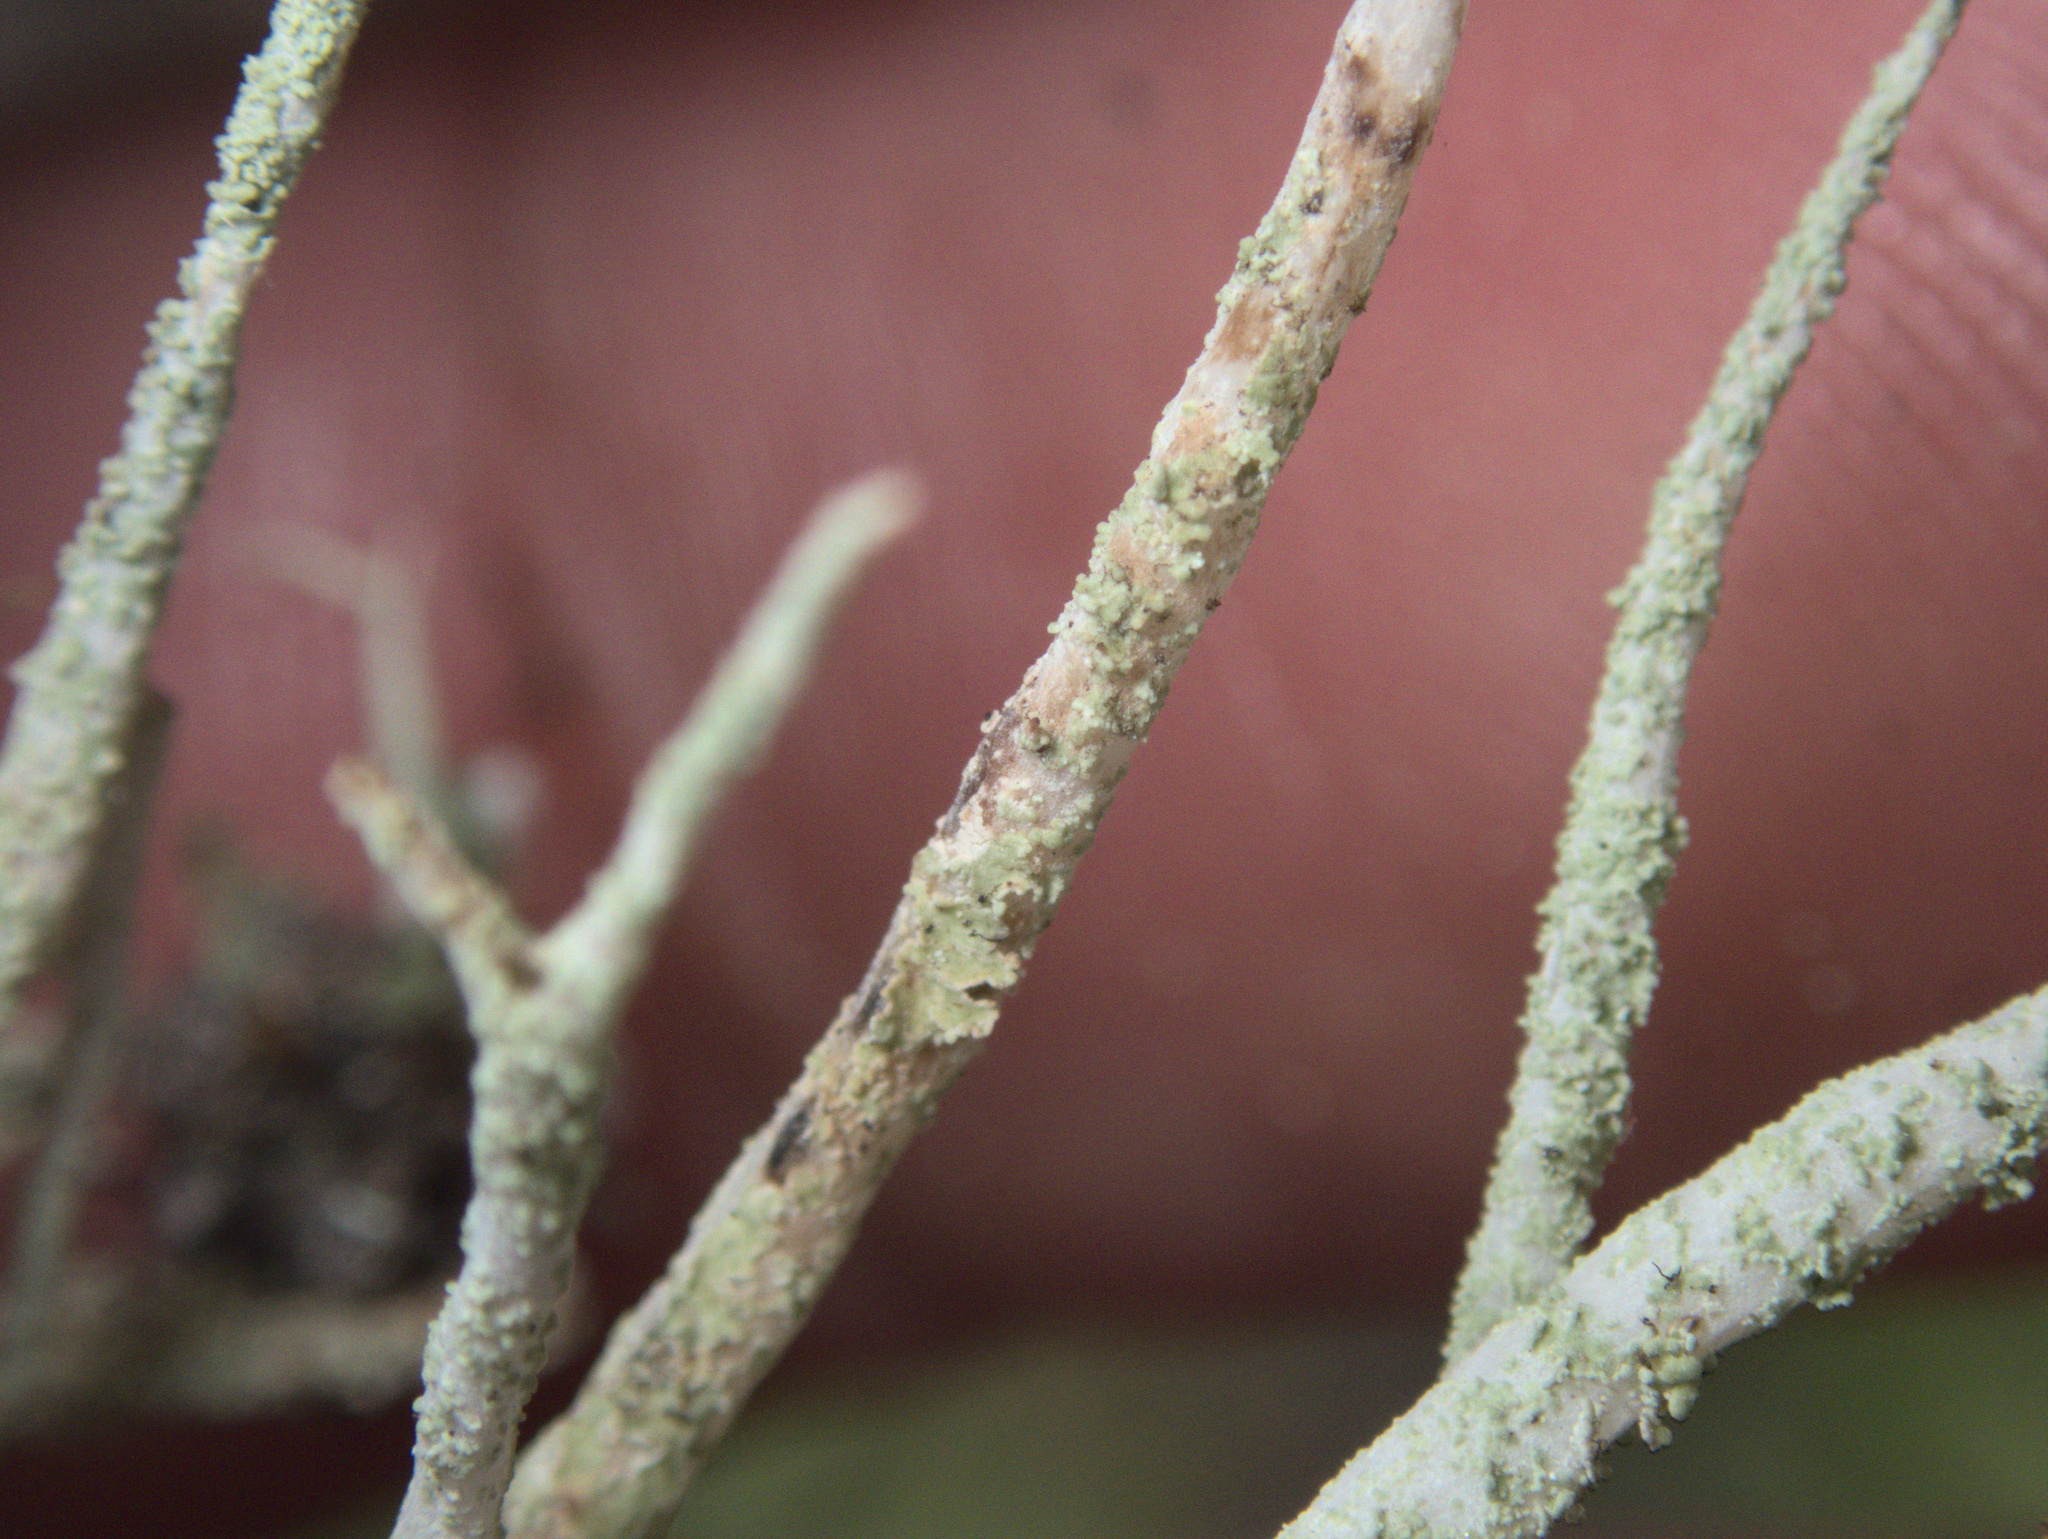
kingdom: Fungi
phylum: Ascomycota
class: Lecanoromycetes
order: Lecanorales
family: Cladoniaceae
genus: Cladonia
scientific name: Cladonia darwinii
